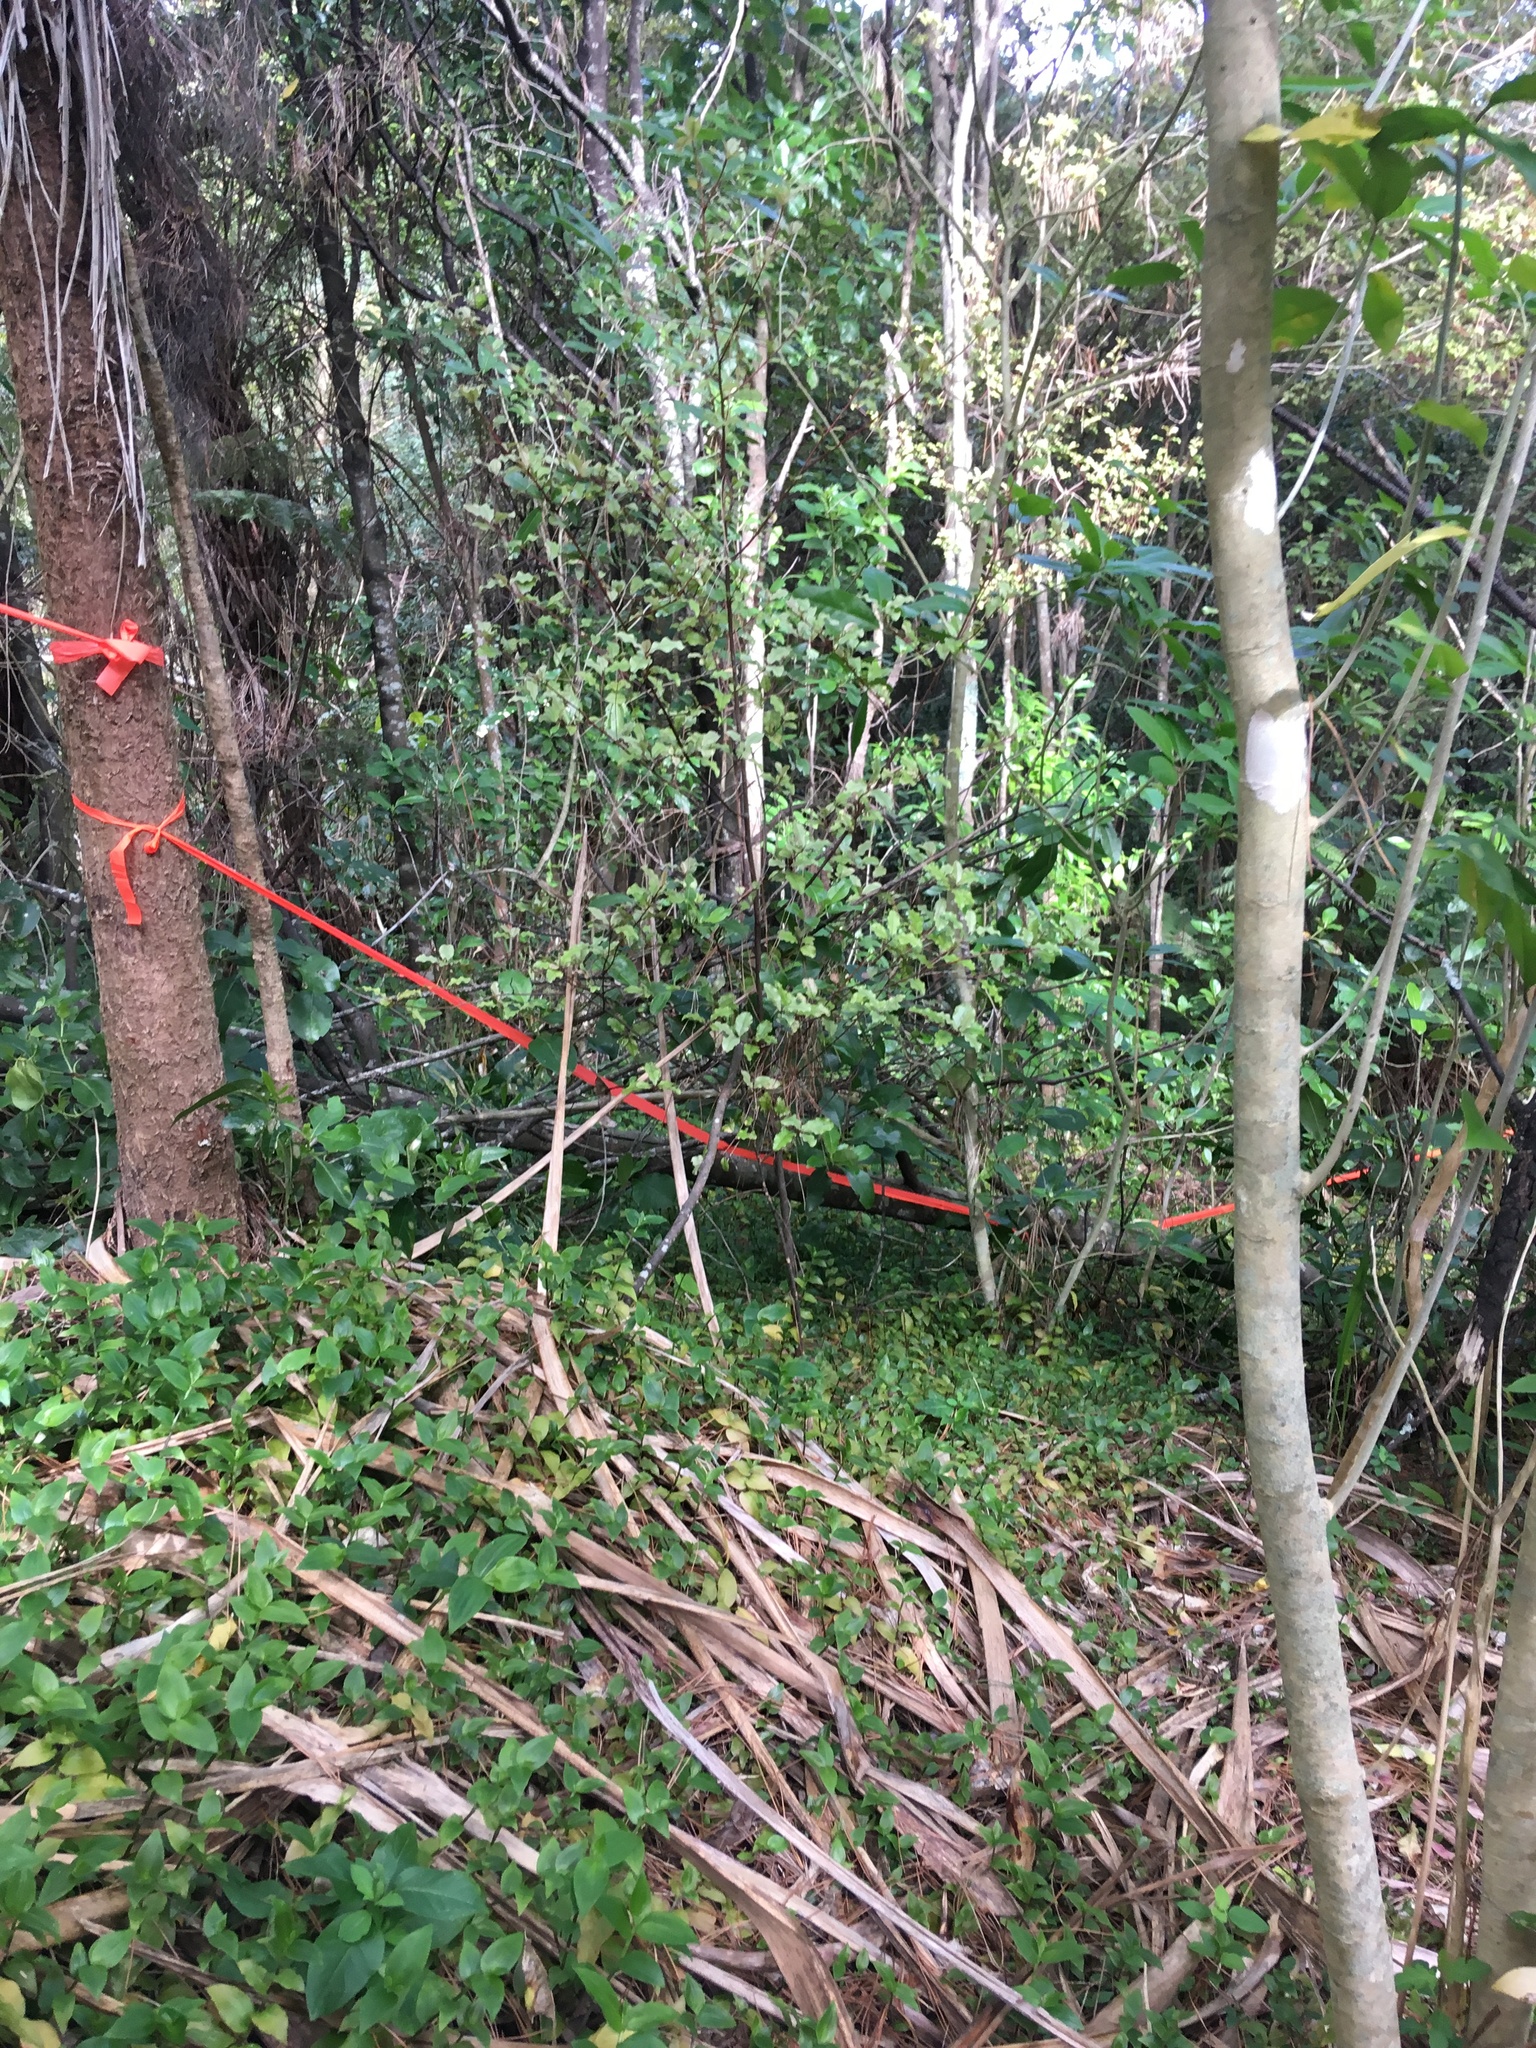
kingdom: Plantae
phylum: Tracheophyta
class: Magnoliopsida
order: Ericales
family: Primulaceae
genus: Myrsine
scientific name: Myrsine australis
